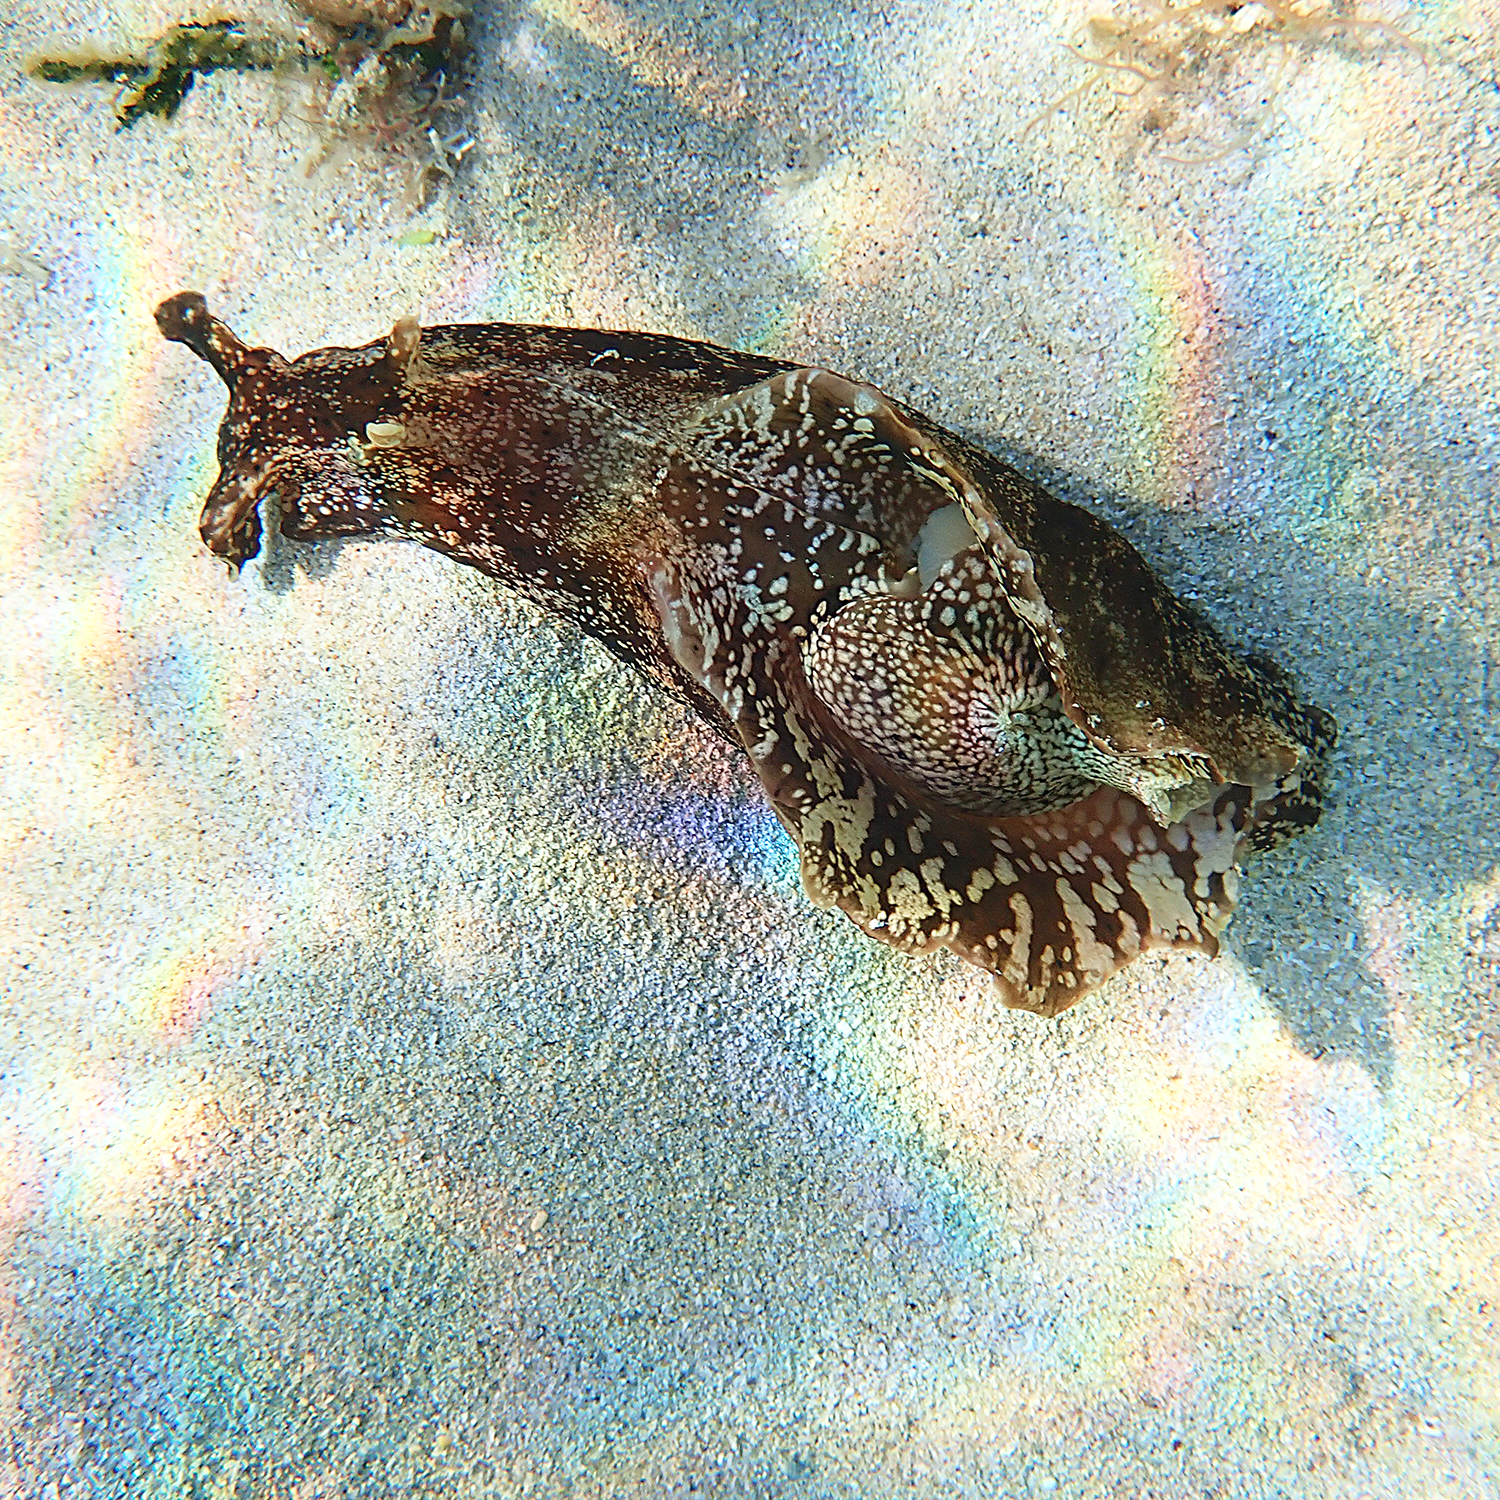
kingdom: Animalia
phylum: Mollusca
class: Gastropoda
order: Aplysiida
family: Aplysiidae
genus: Aplysia
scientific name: Aplysia reticulata
